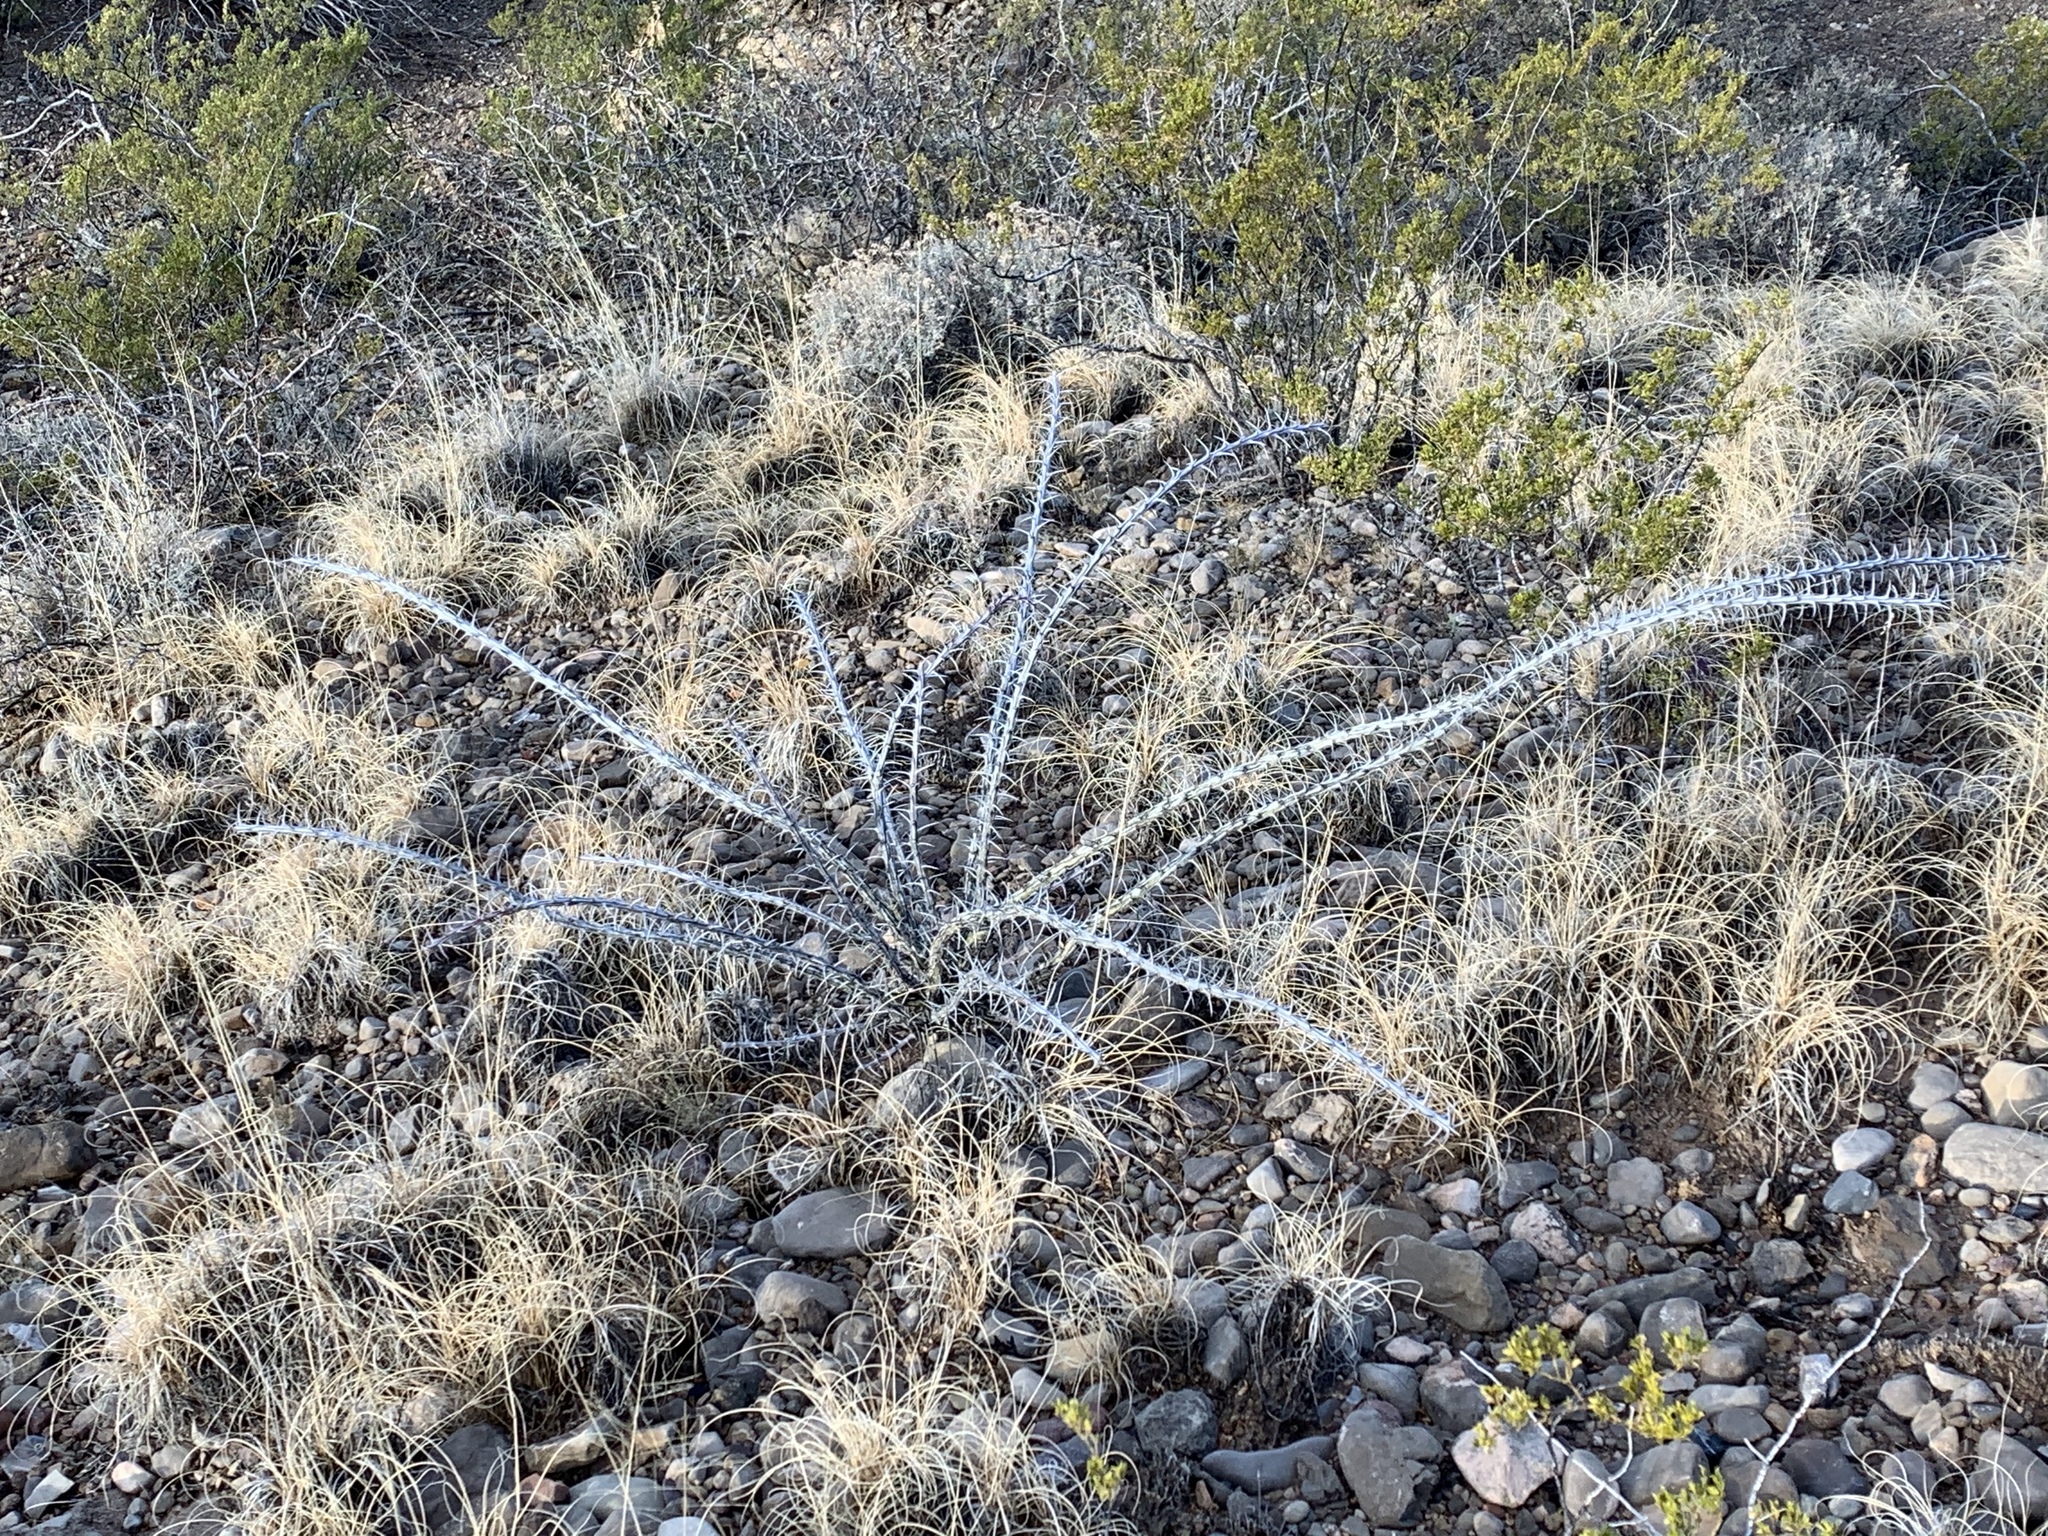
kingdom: Plantae
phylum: Tracheophyta
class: Magnoliopsida
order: Ericales
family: Fouquieriaceae
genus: Fouquieria
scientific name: Fouquieria splendens
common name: Vine-cactus
